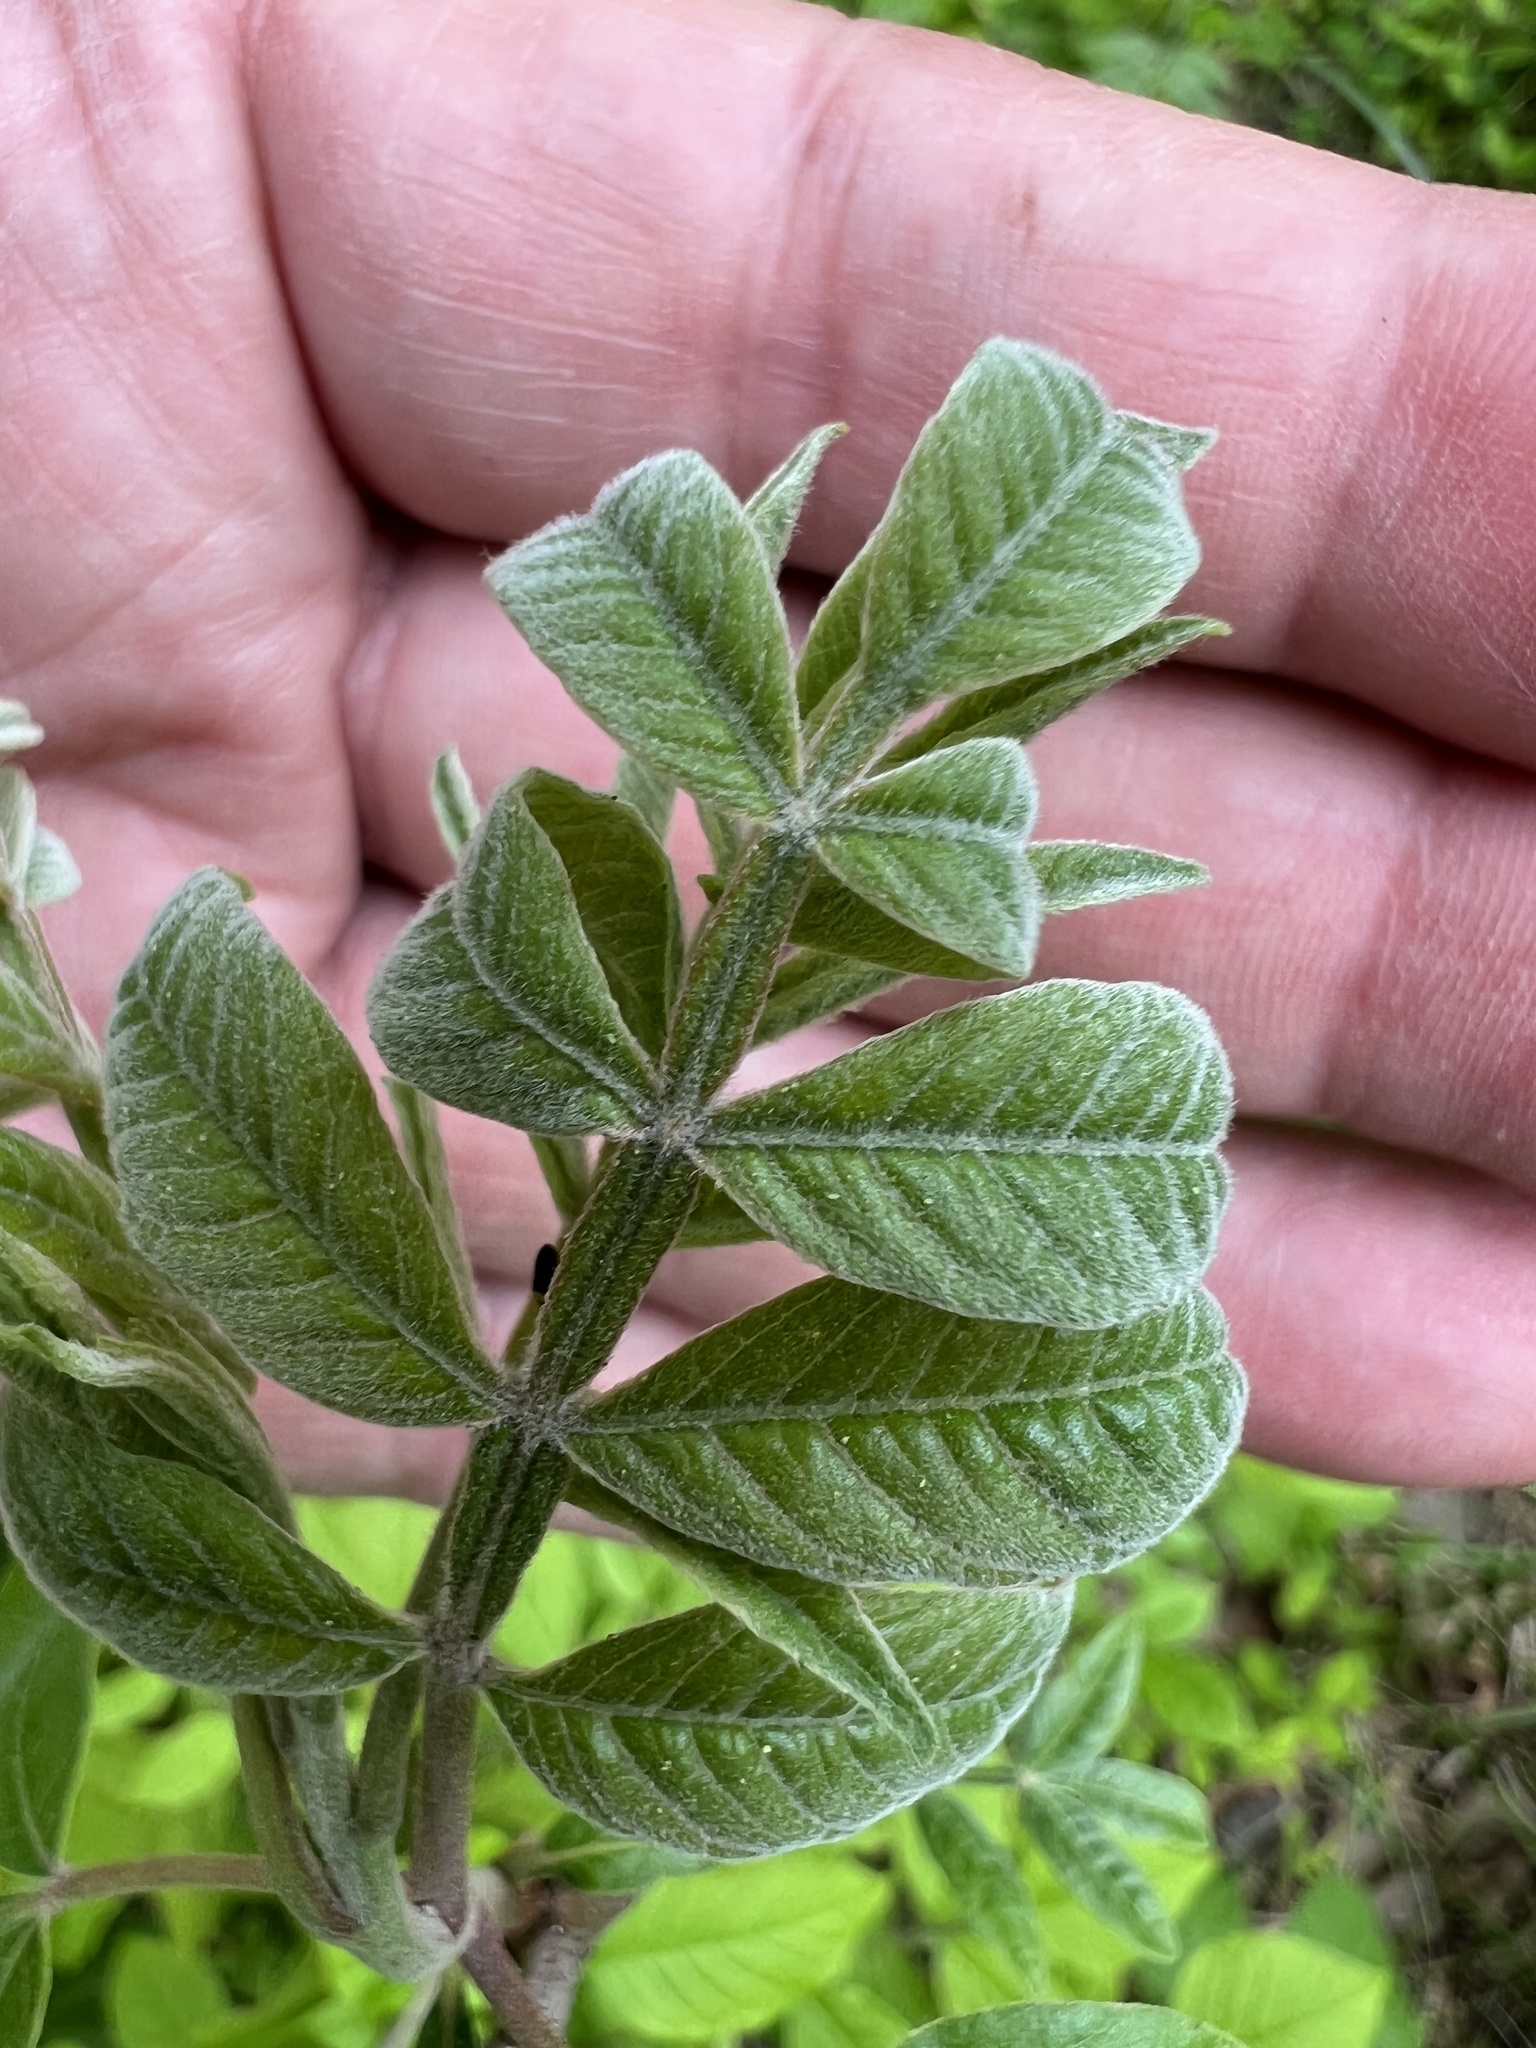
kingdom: Plantae
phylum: Tracheophyta
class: Magnoliopsida
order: Sapindales
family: Anacardiaceae
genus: Rhus
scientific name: Rhus copallina
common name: Shining sumac
